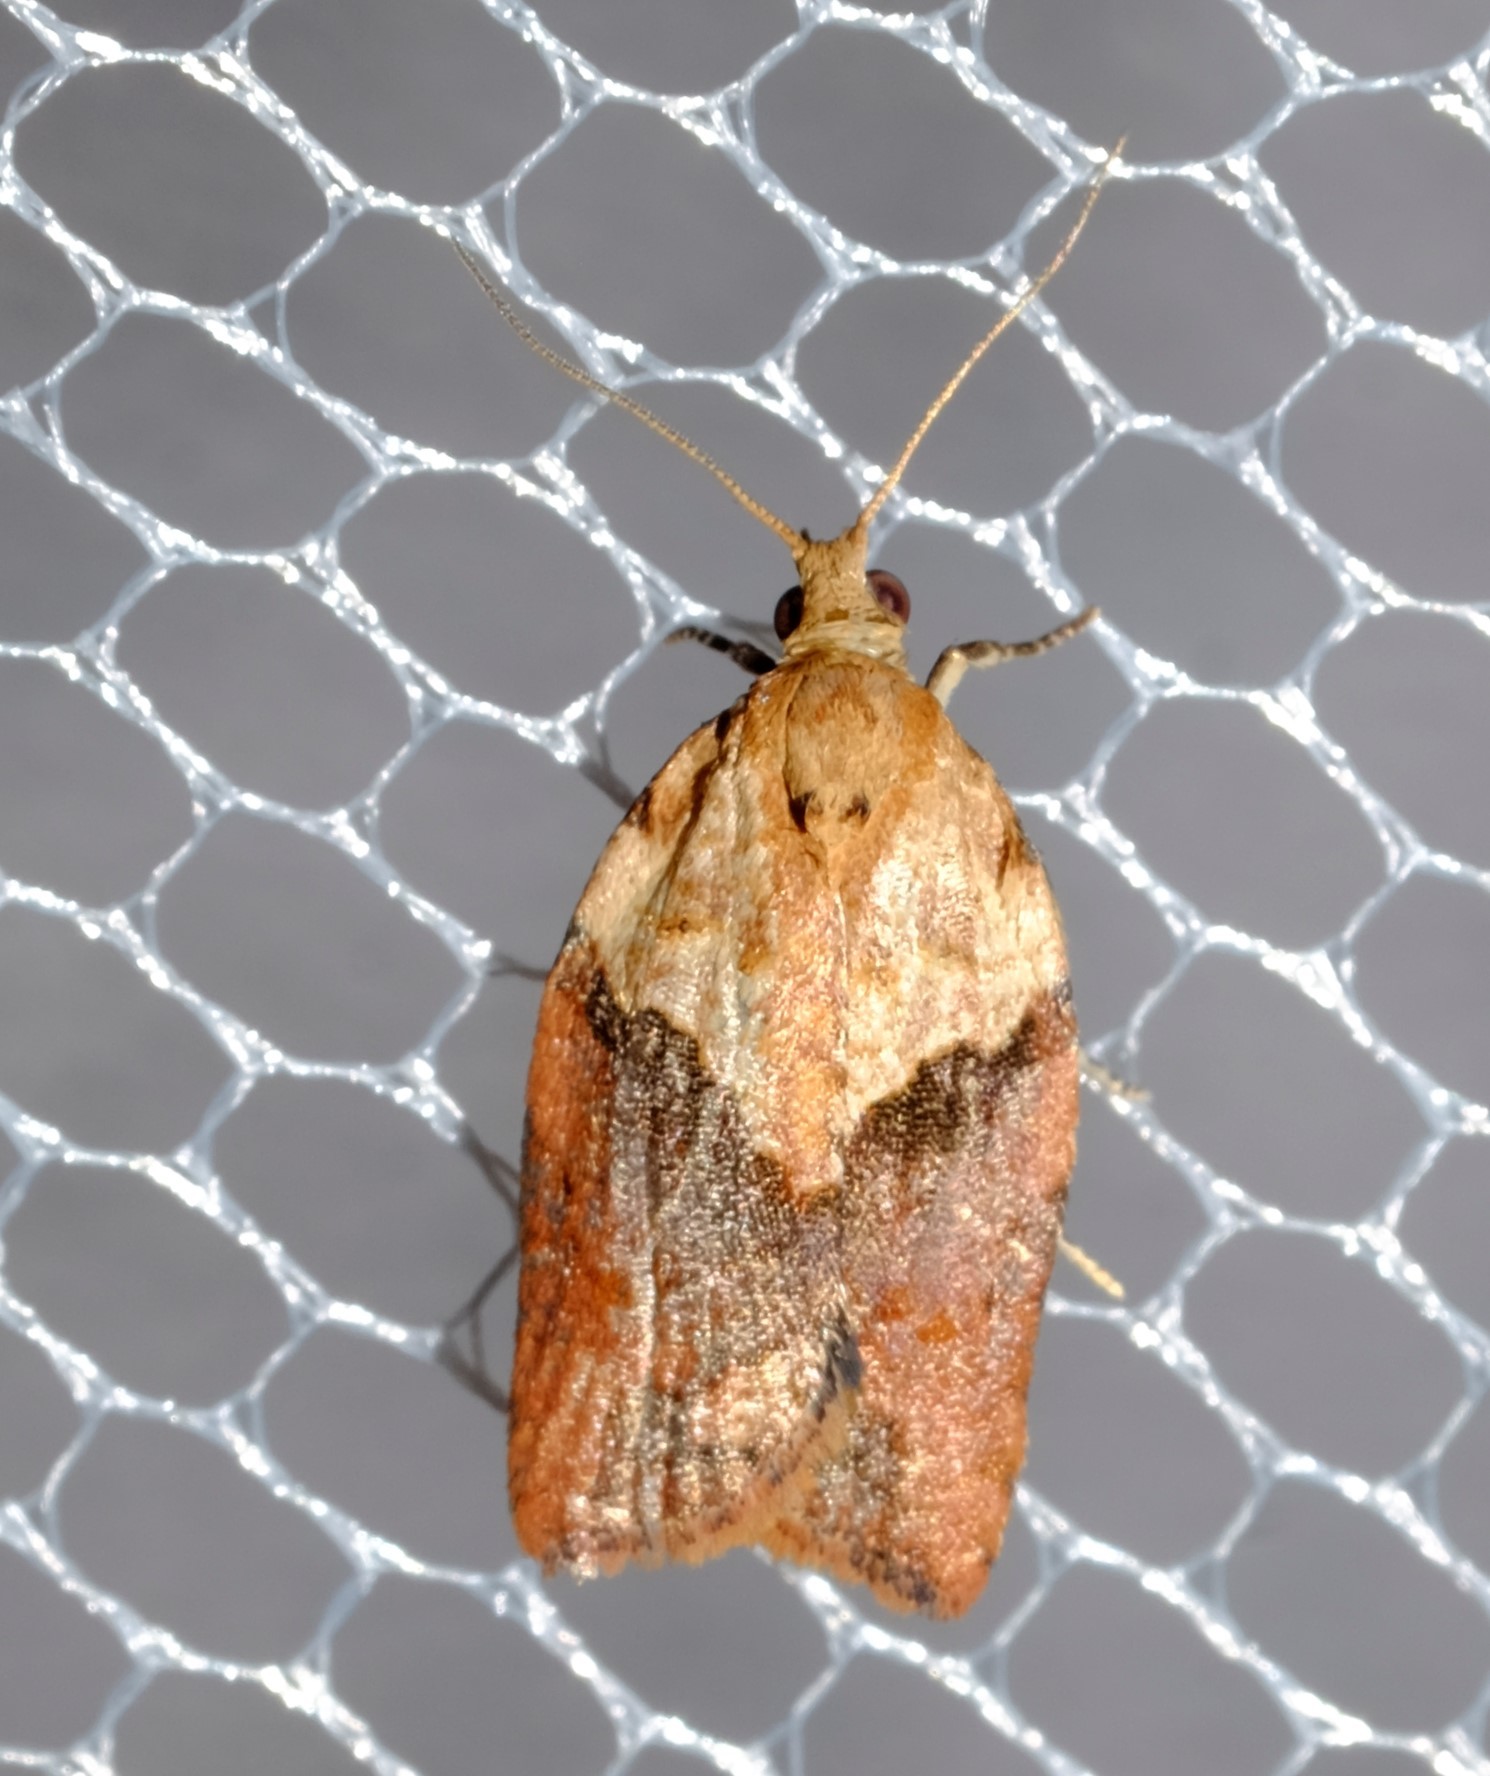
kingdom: Animalia
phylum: Arthropoda
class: Insecta
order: Lepidoptera
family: Tortricidae
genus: Epiphyas
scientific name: Epiphyas postvittana
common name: Light brown apple moth
